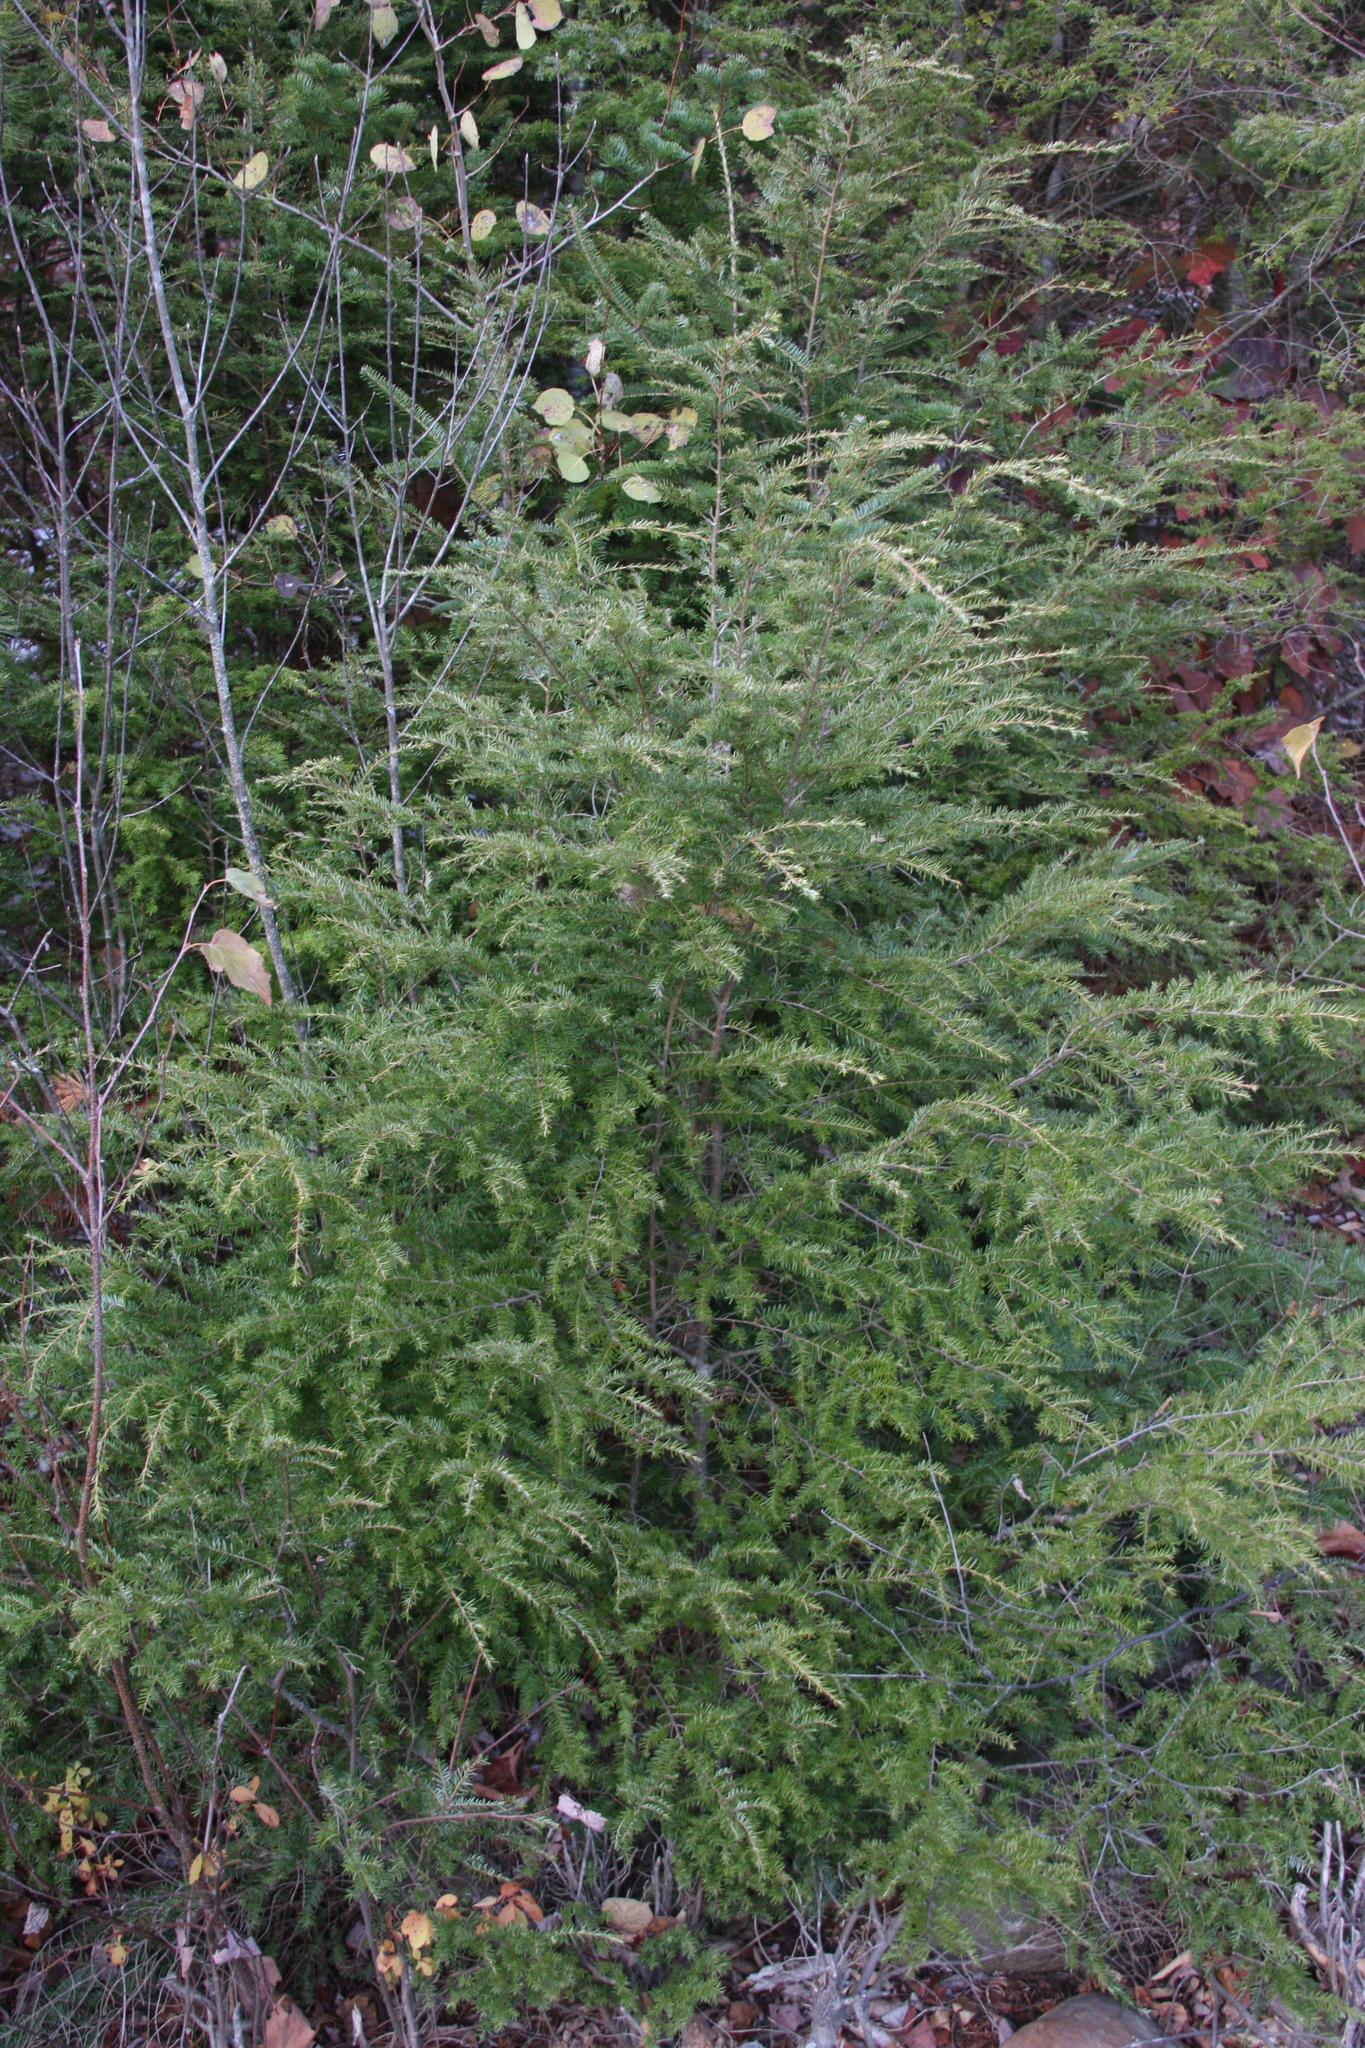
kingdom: Plantae
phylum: Tracheophyta
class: Pinopsida
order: Pinales
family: Pinaceae
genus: Tsuga
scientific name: Tsuga canadensis
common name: Eastern hemlock
